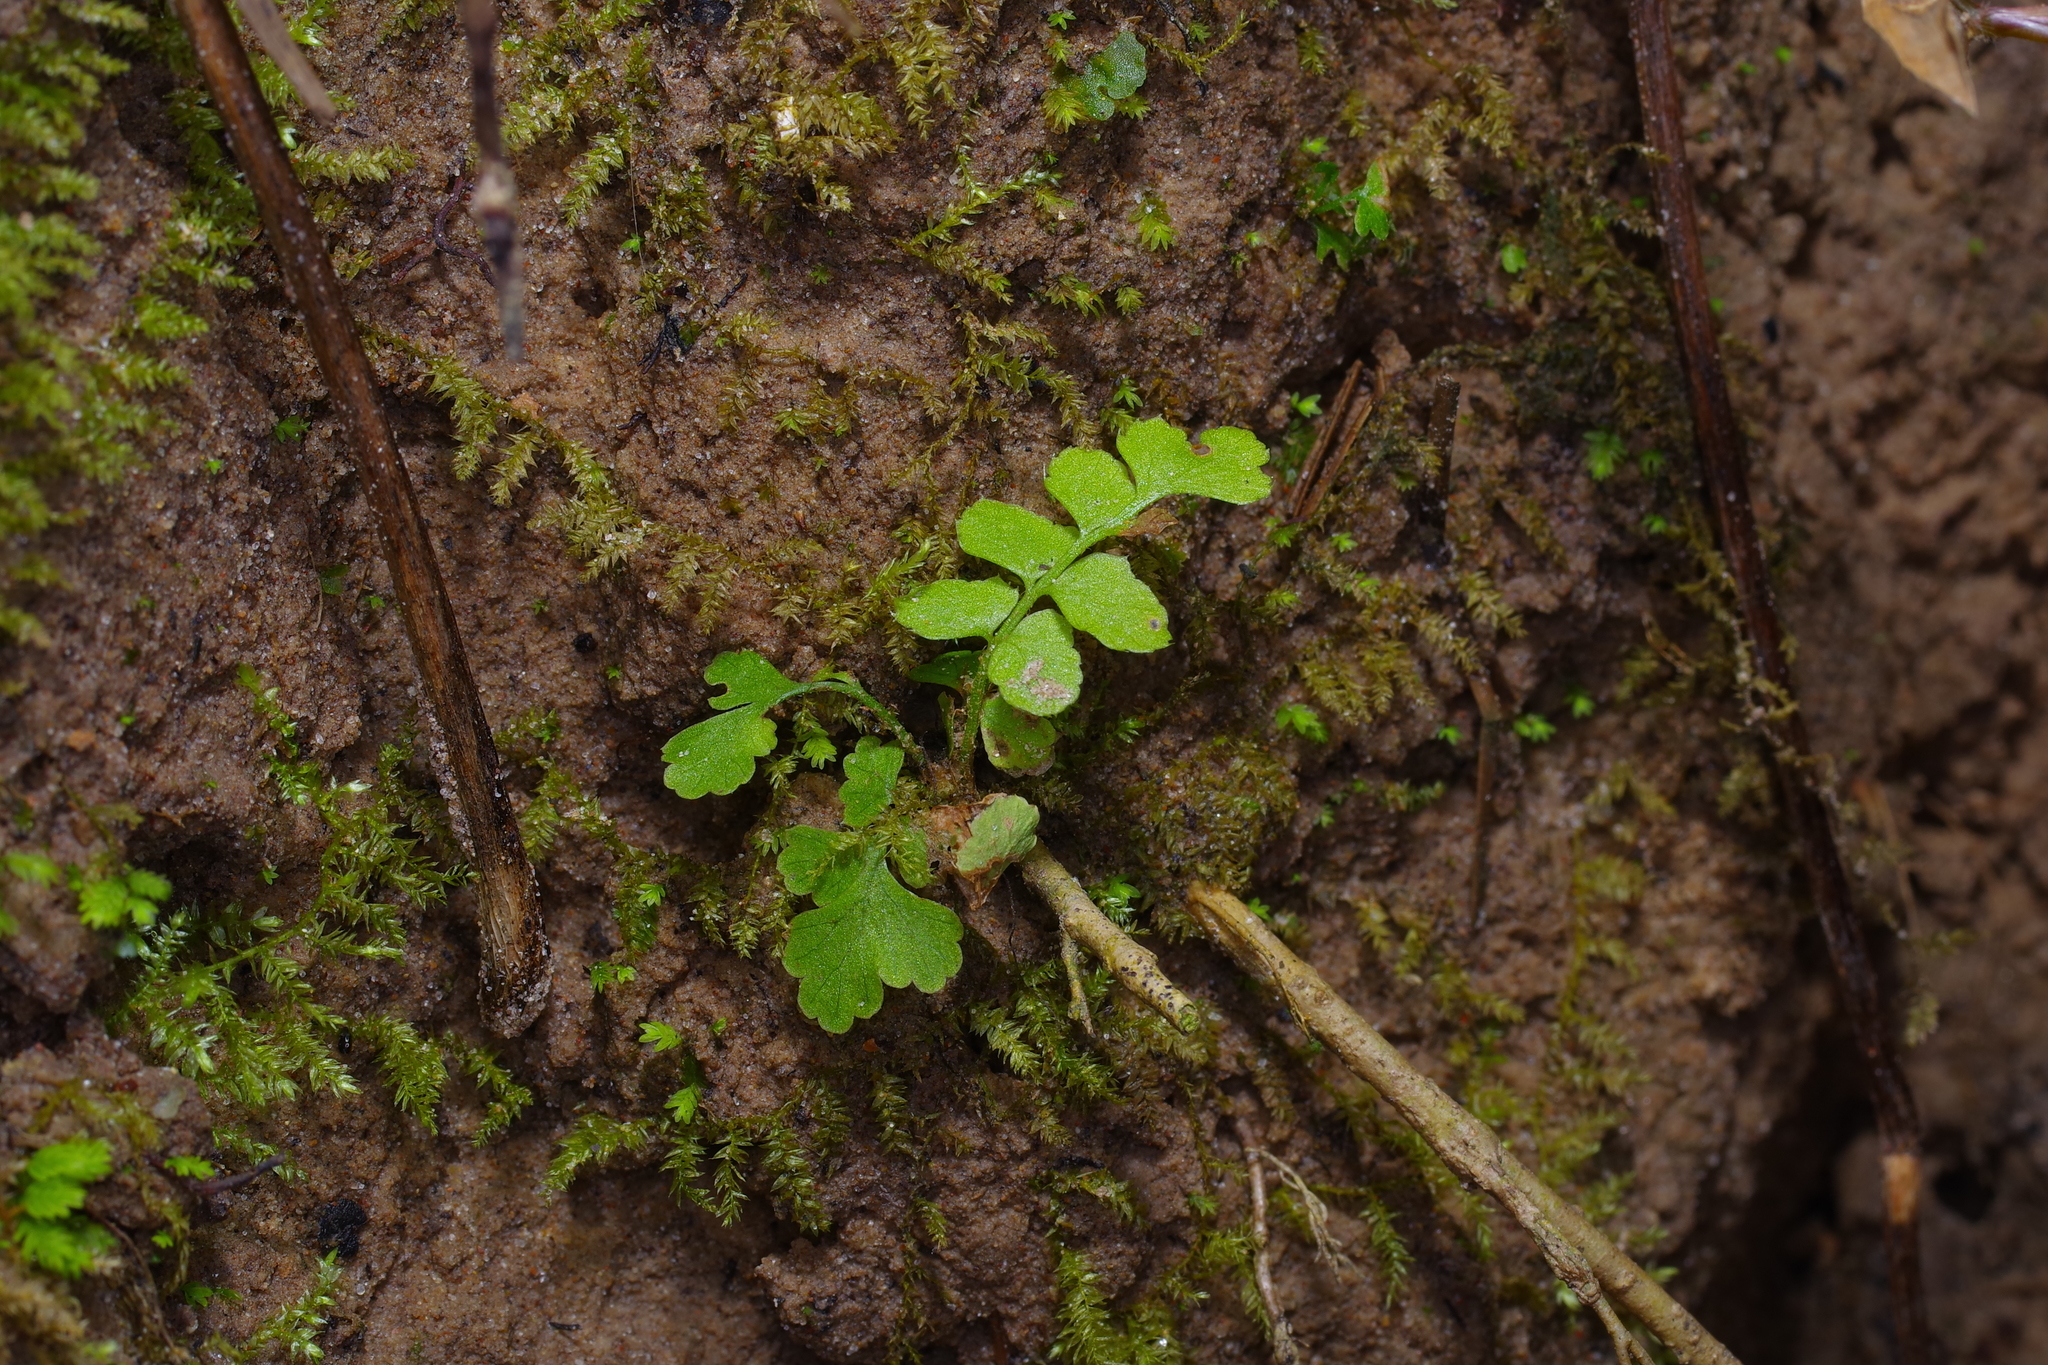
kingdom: Plantae
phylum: Tracheophyta
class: Polypodiopsida
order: Polypodiales
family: Dryopteridaceae
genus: Polystichum
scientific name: Polystichum acrostichoides
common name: Christmas fern
